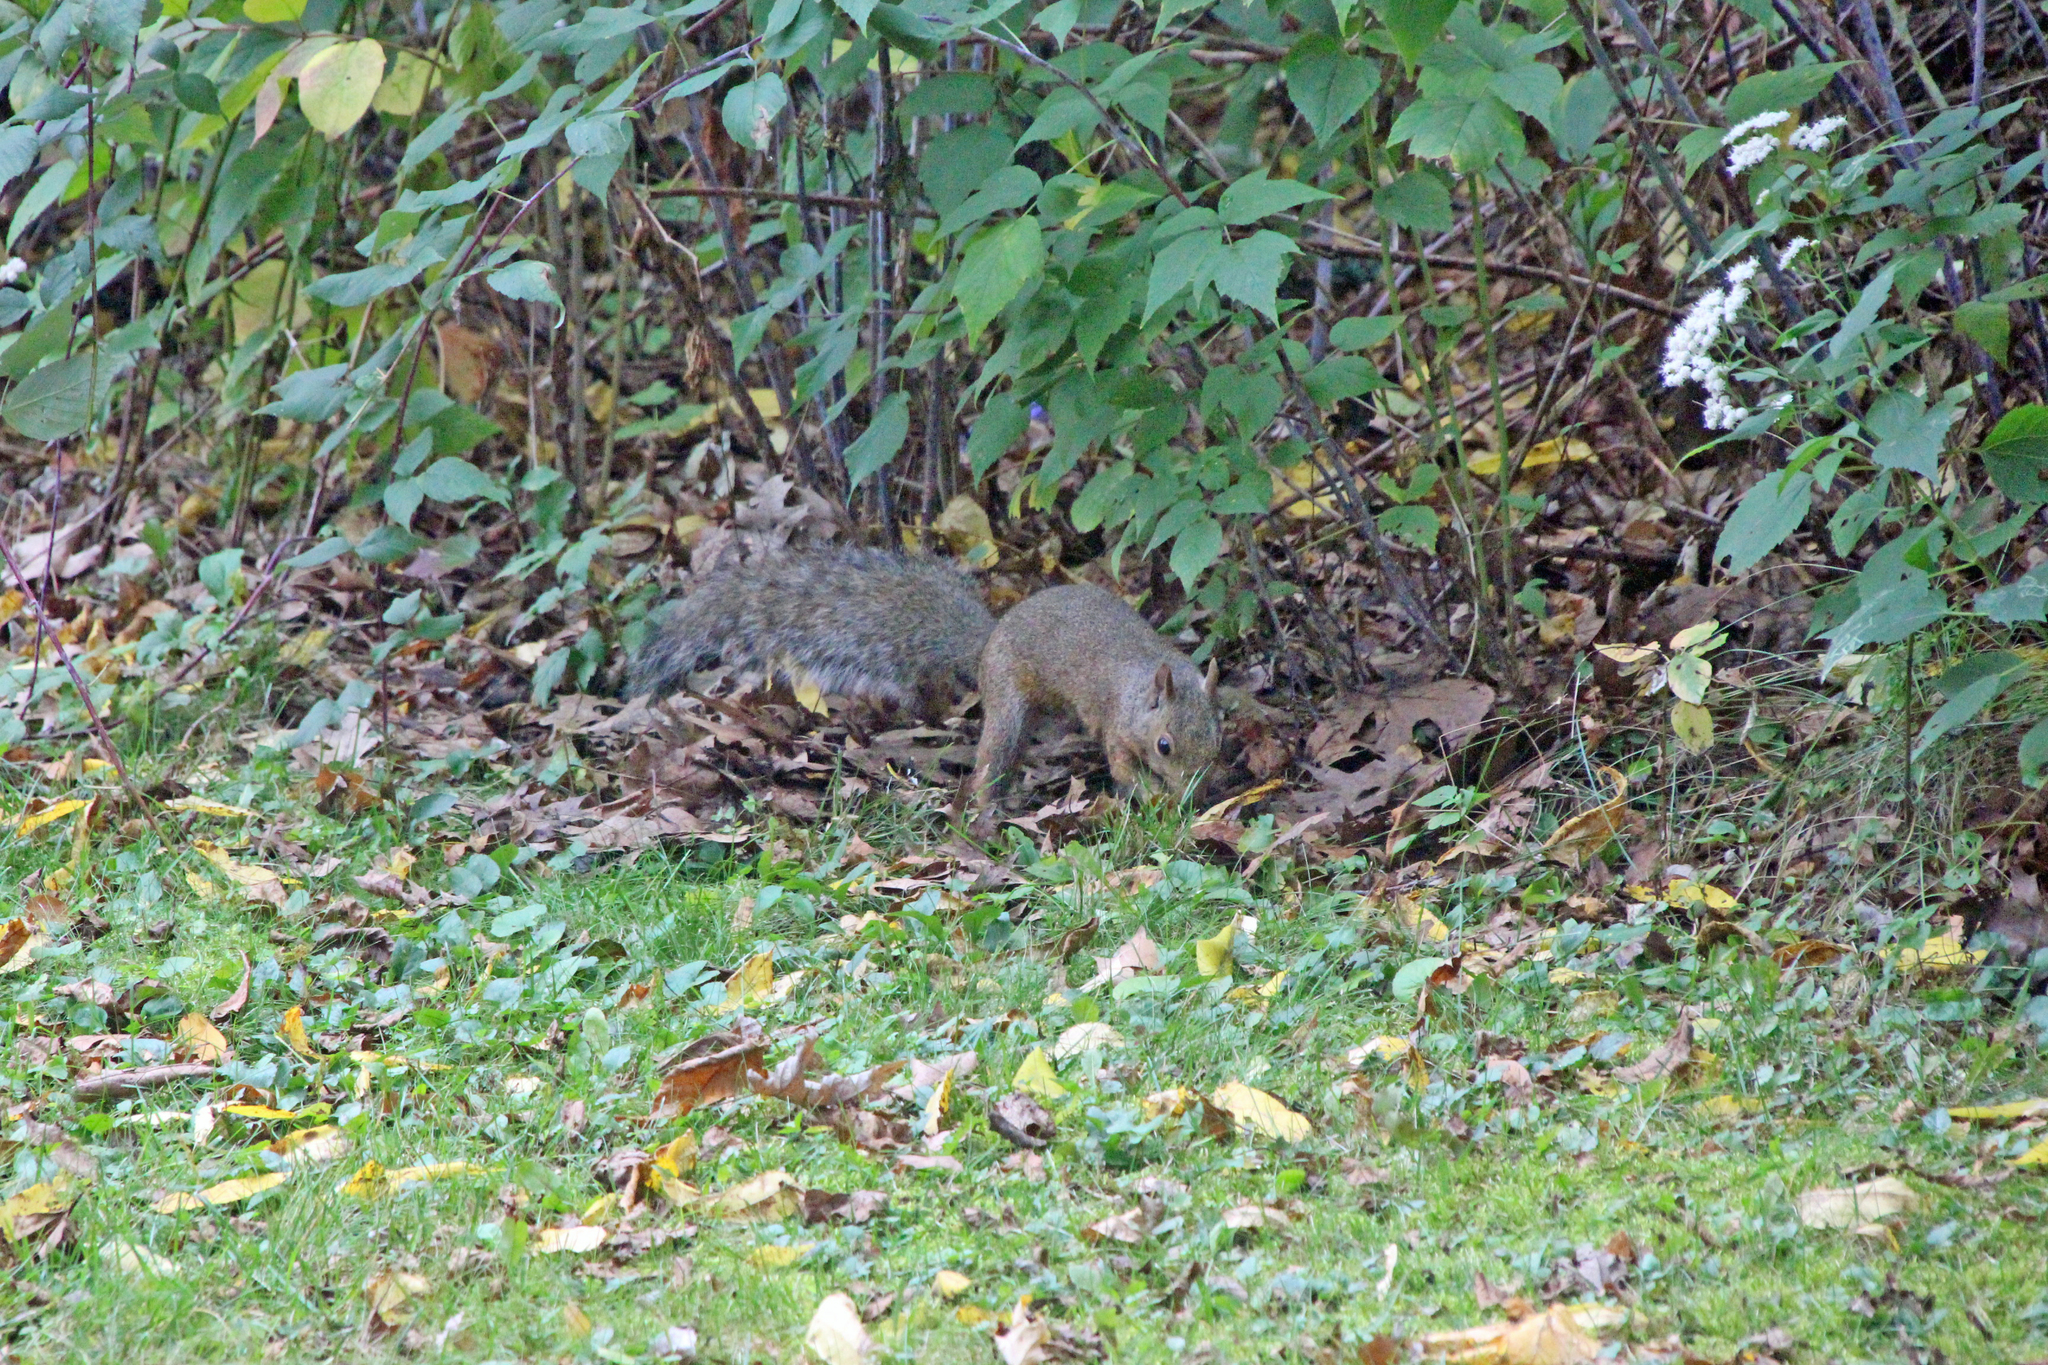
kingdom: Animalia
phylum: Chordata
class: Mammalia
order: Rodentia
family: Sciuridae
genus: Sciurus
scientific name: Sciurus carolinensis
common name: Eastern gray squirrel
